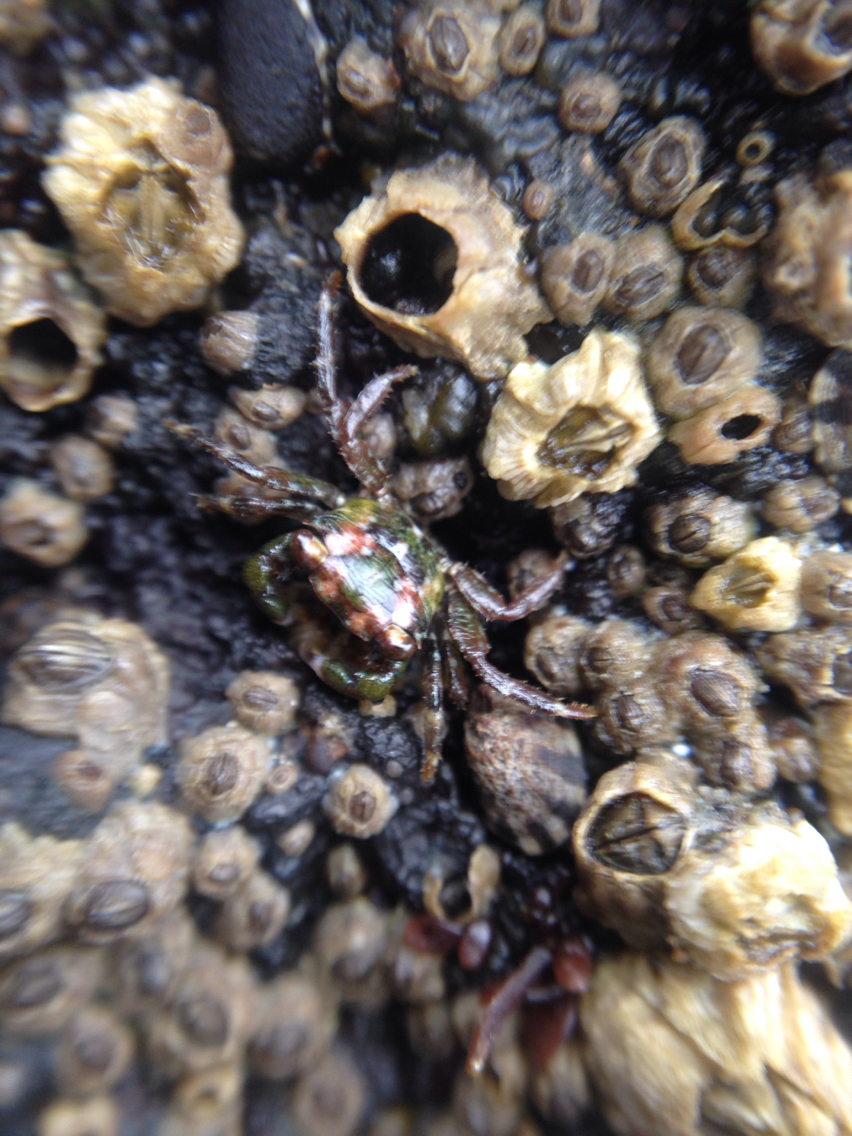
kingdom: Animalia
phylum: Arthropoda
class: Malacostraca
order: Decapoda
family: Grapsidae
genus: Pachygrapsus
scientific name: Pachygrapsus crassipes
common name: Striped shore crab
